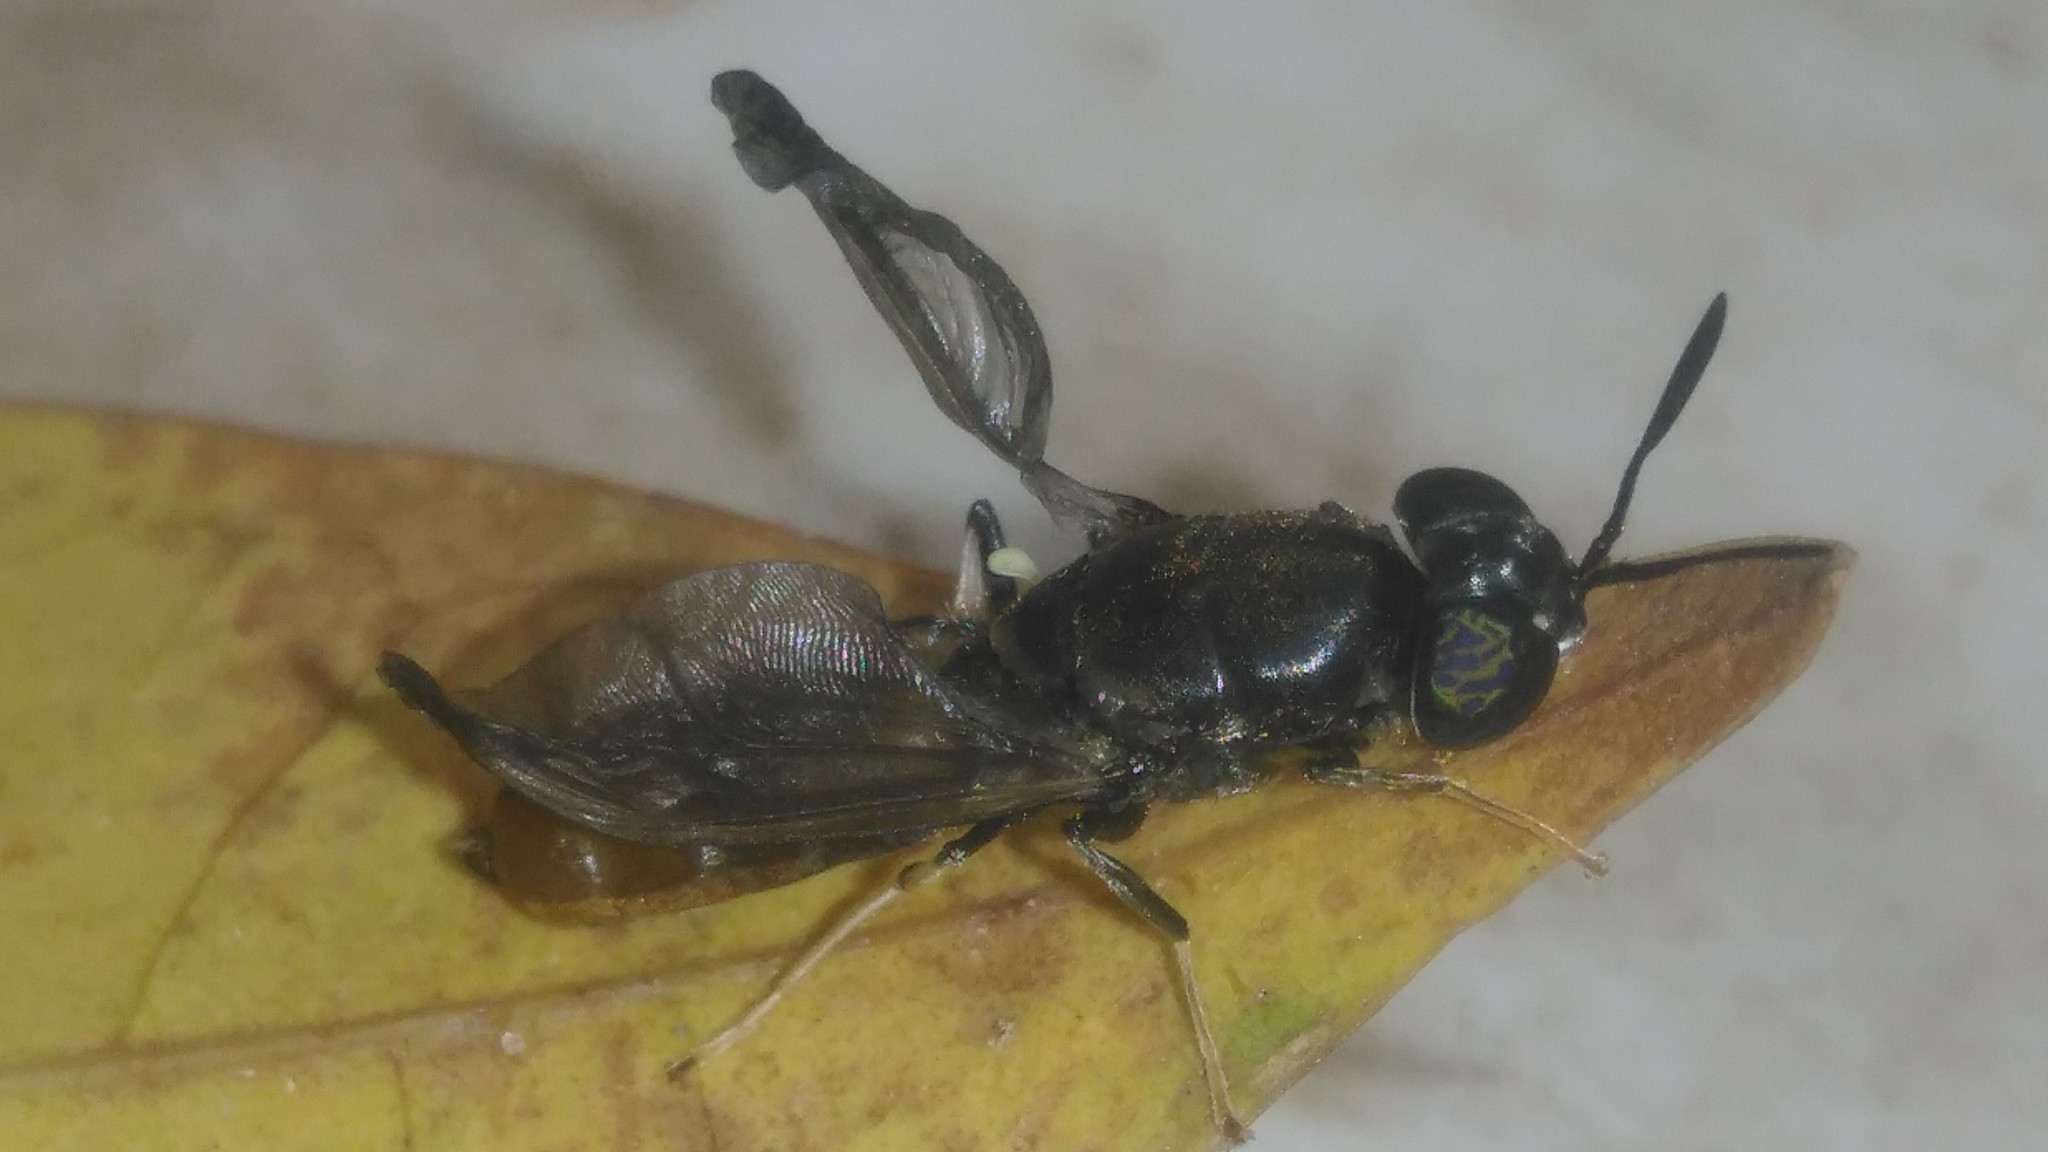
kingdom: Animalia
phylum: Arthropoda
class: Insecta
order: Diptera
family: Stratiomyidae
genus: Hermetia
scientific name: Hermetia illucens
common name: Black soldier fly
